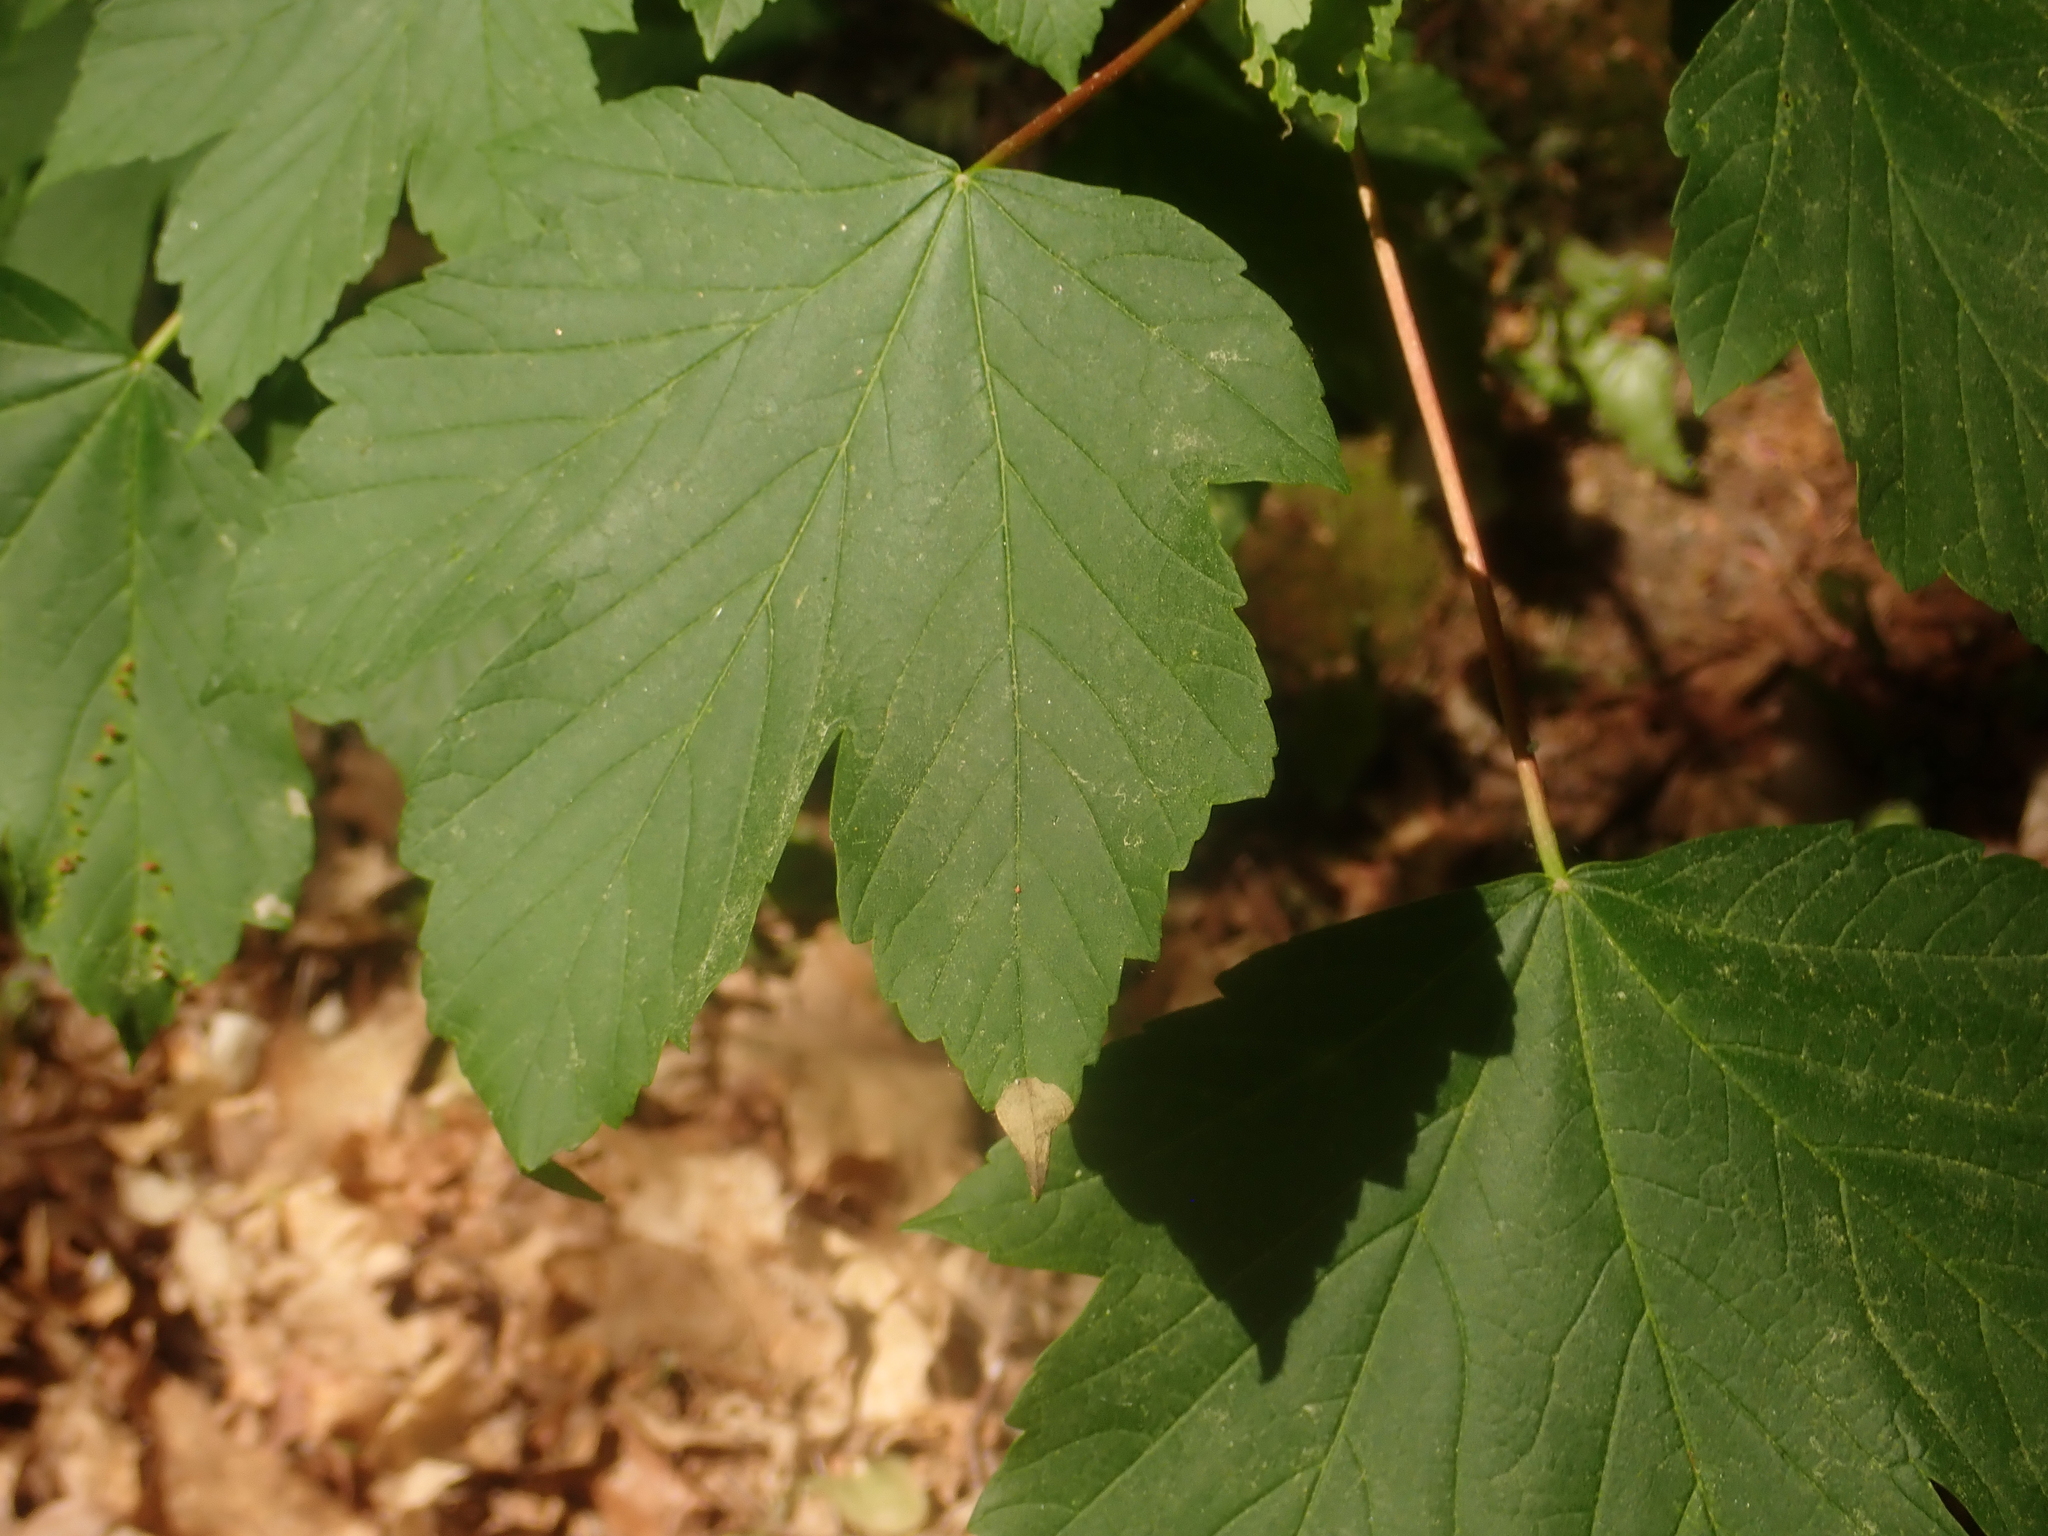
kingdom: Plantae
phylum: Tracheophyta
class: Magnoliopsida
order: Sapindales
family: Sapindaceae
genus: Acer
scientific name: Acer pseudoplatanus
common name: Sycamore
